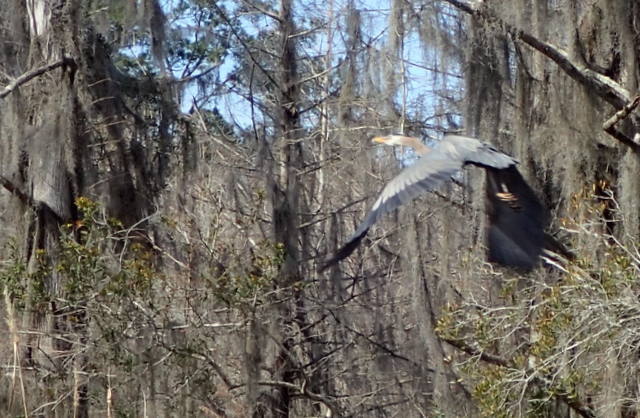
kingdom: Animalia
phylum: Chordata
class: Aves
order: Pelecaniformes
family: Ardeidae
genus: Ardea
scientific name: Ardea herodias
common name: Great blue heron
